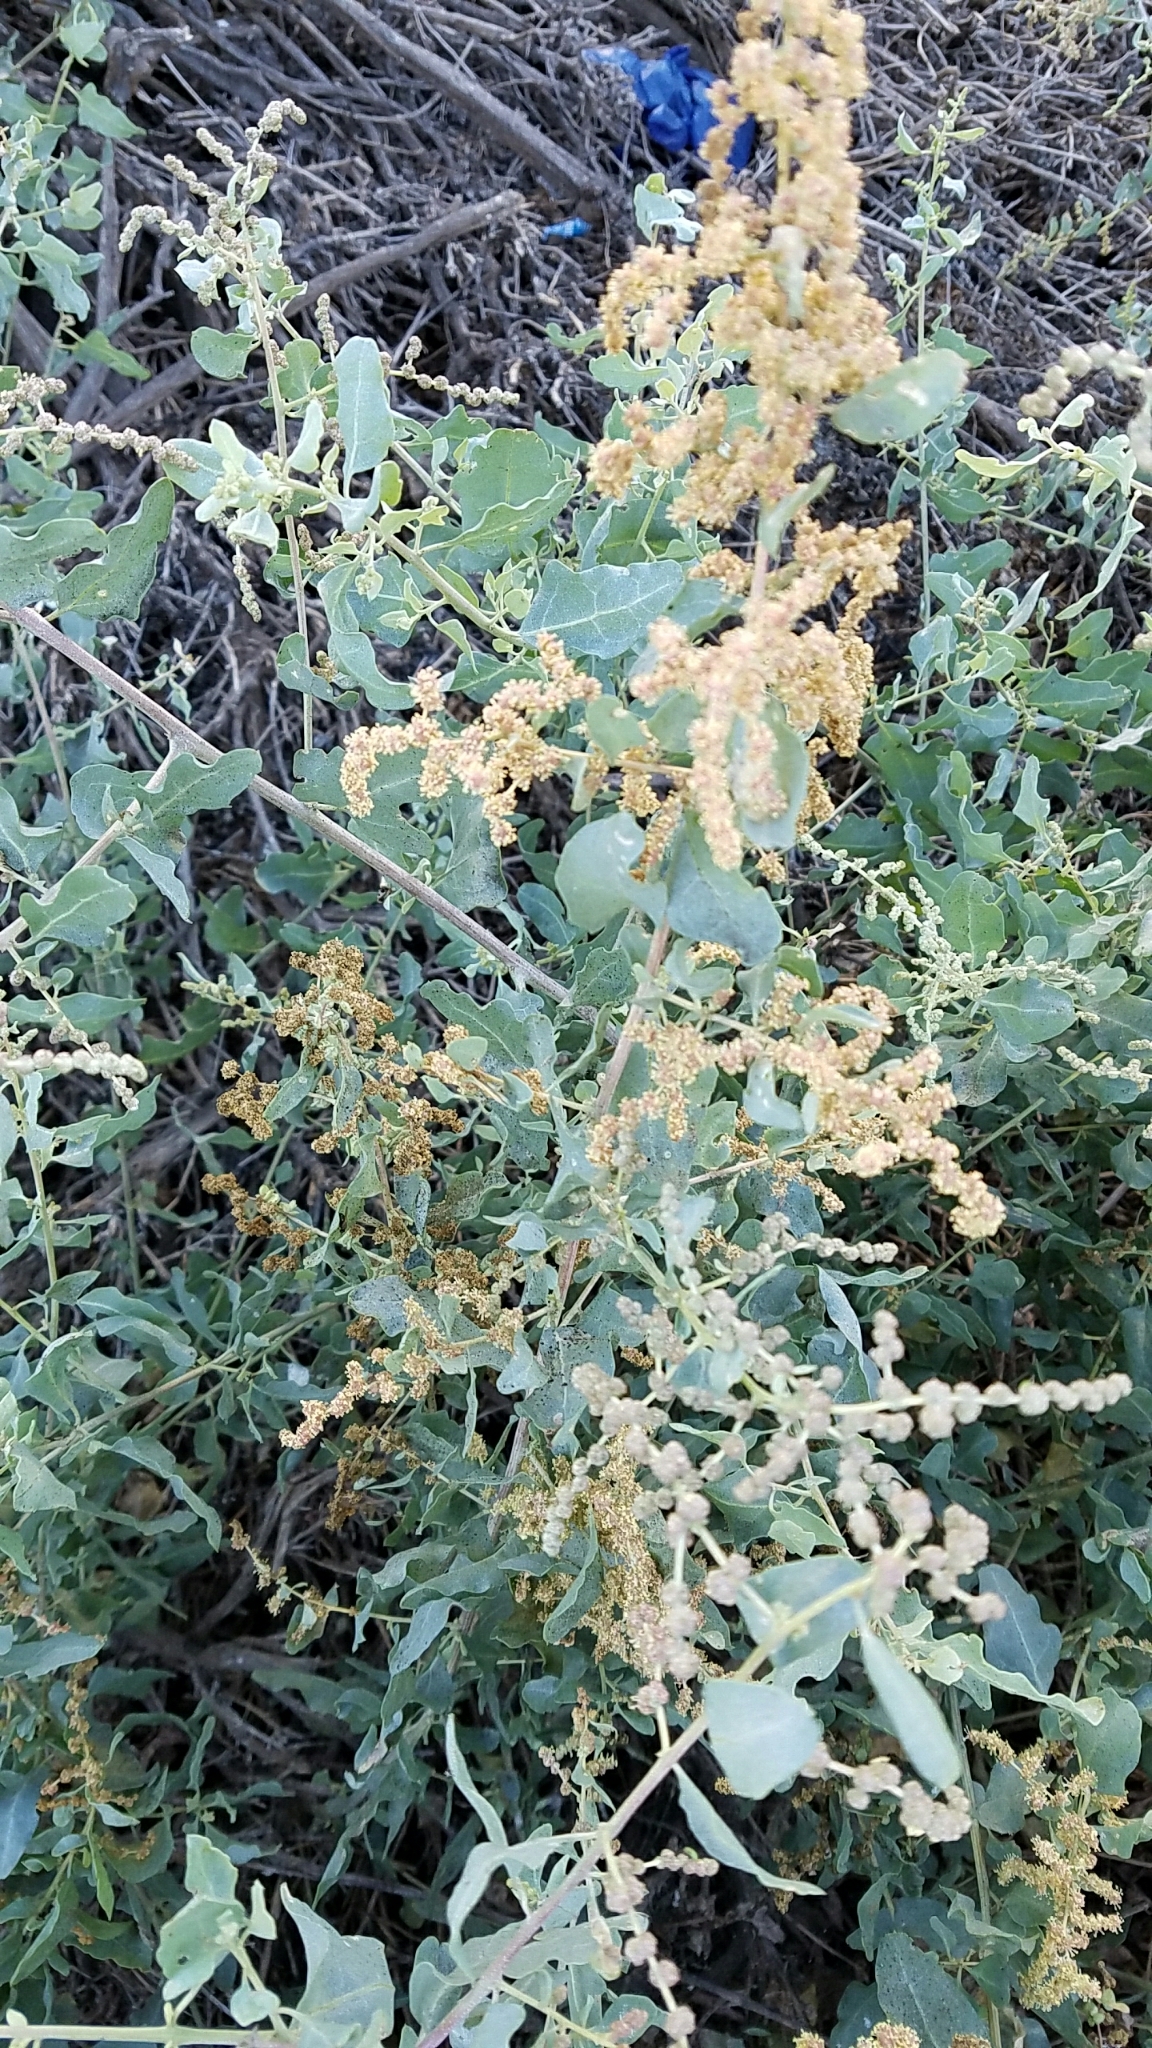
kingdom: Plantae
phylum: Tracheophyta
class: Magnoliopsida
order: Caryophyllales
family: Amaranthaceae
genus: Atriplex
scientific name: Atriplex lentiformis
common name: Big saltbush
